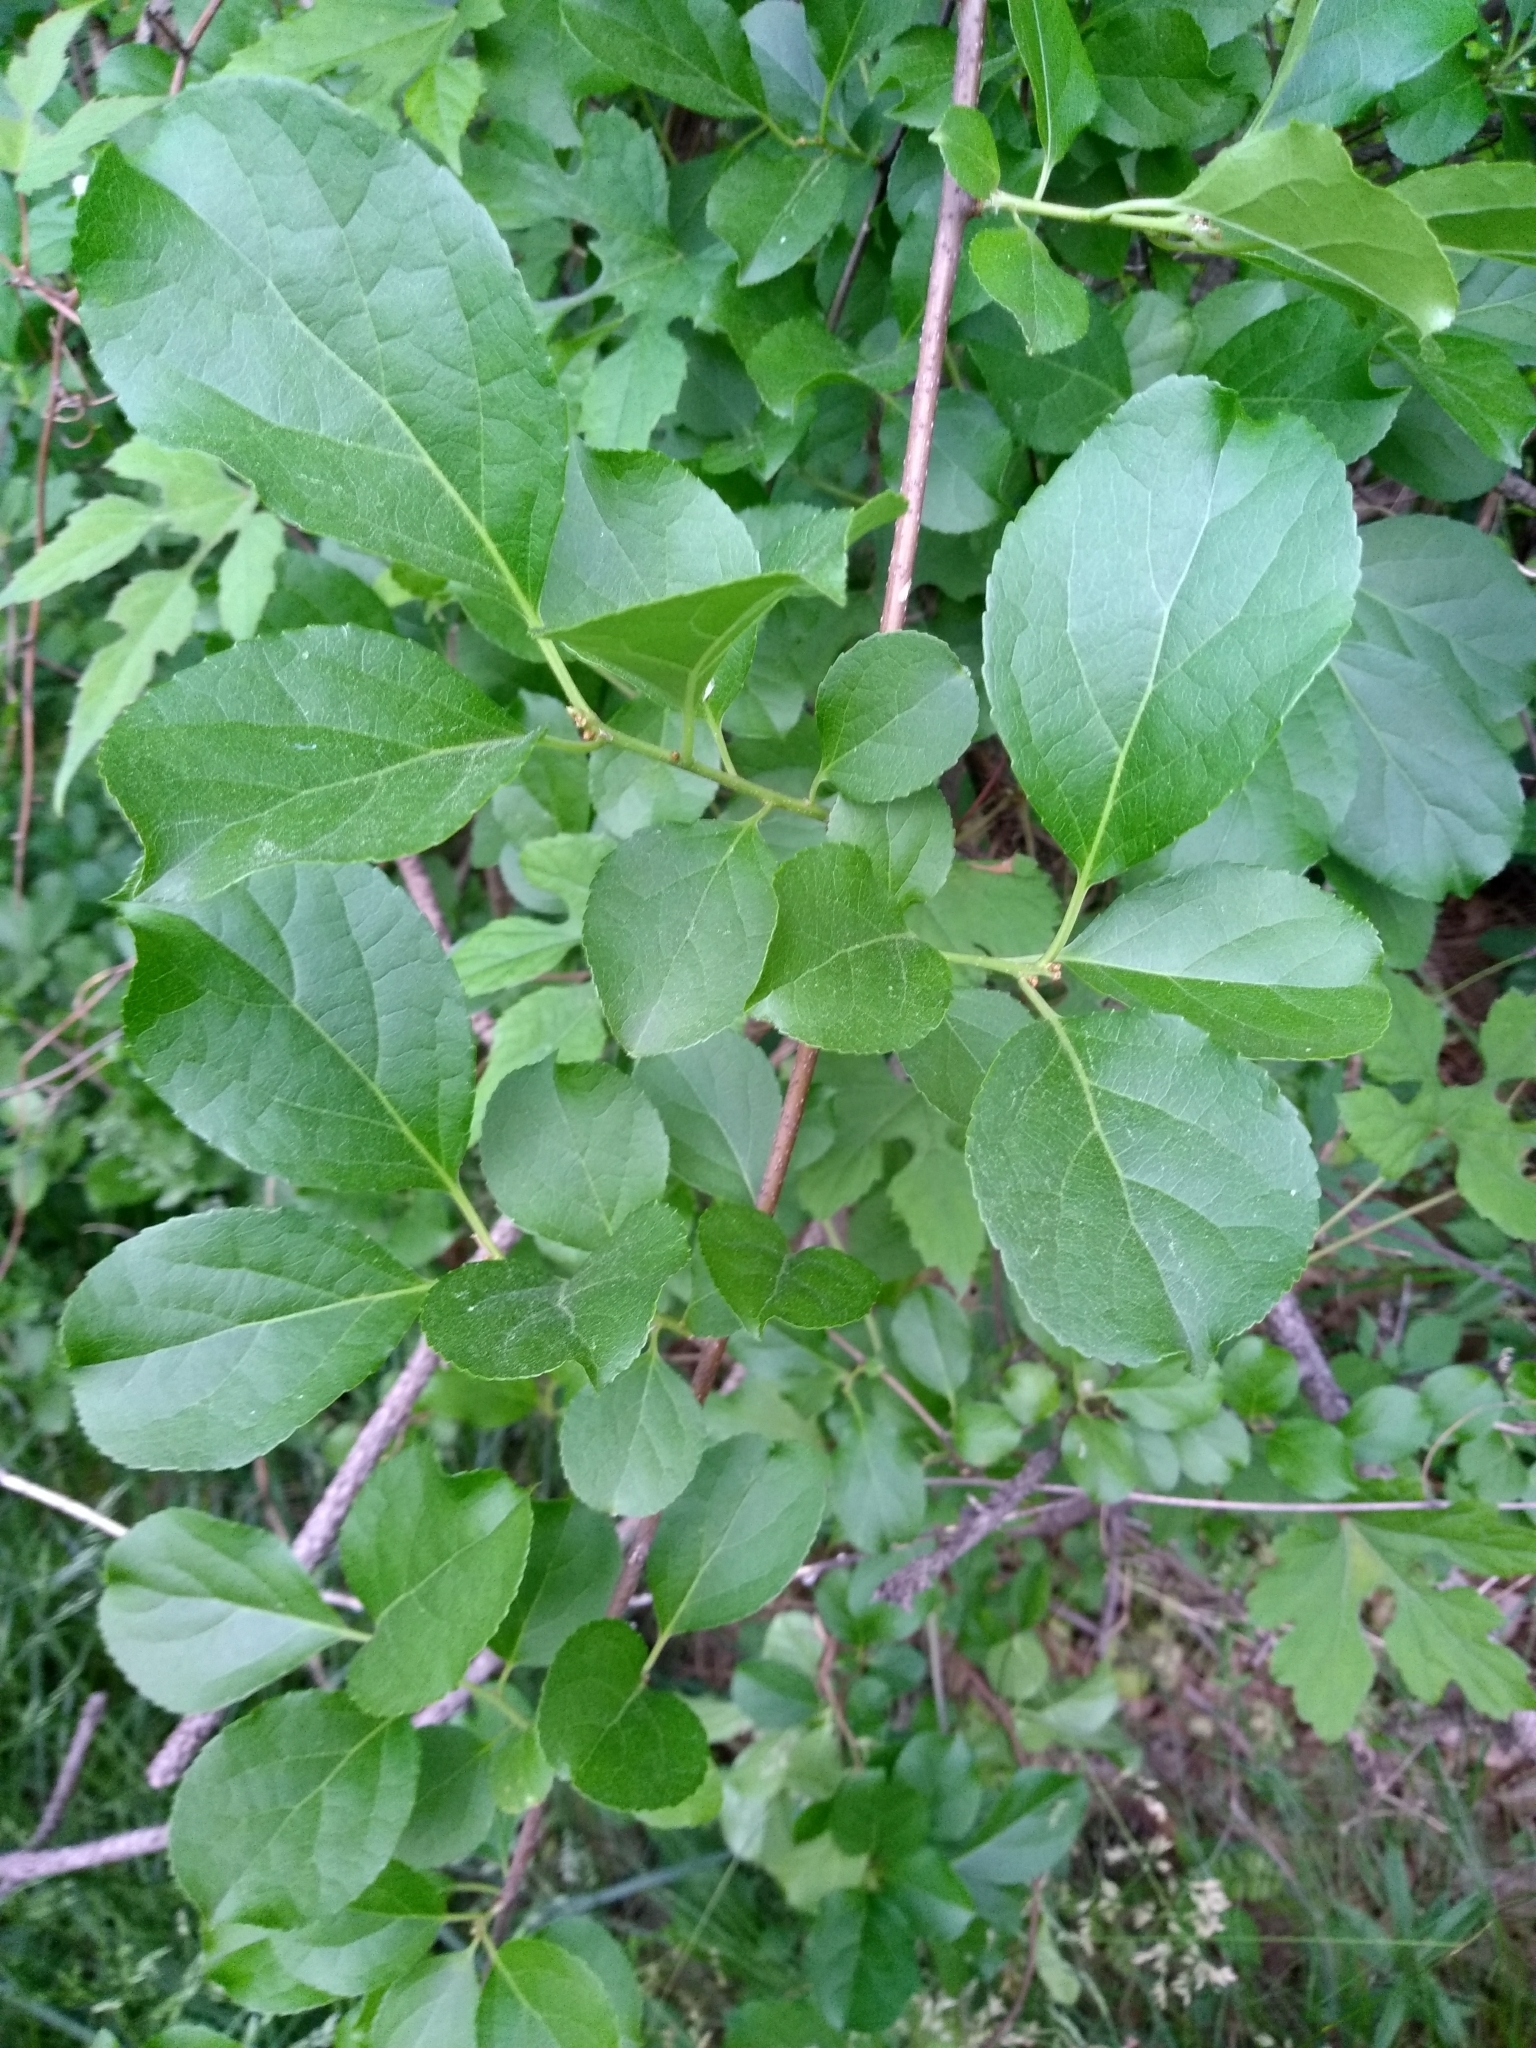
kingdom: Plantae
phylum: Tracheophyta
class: Magnoliopsida
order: Celastrales
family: Celastraceae
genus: Celastrus
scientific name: Celastrus orbiculatus
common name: Oriental bittersweet
